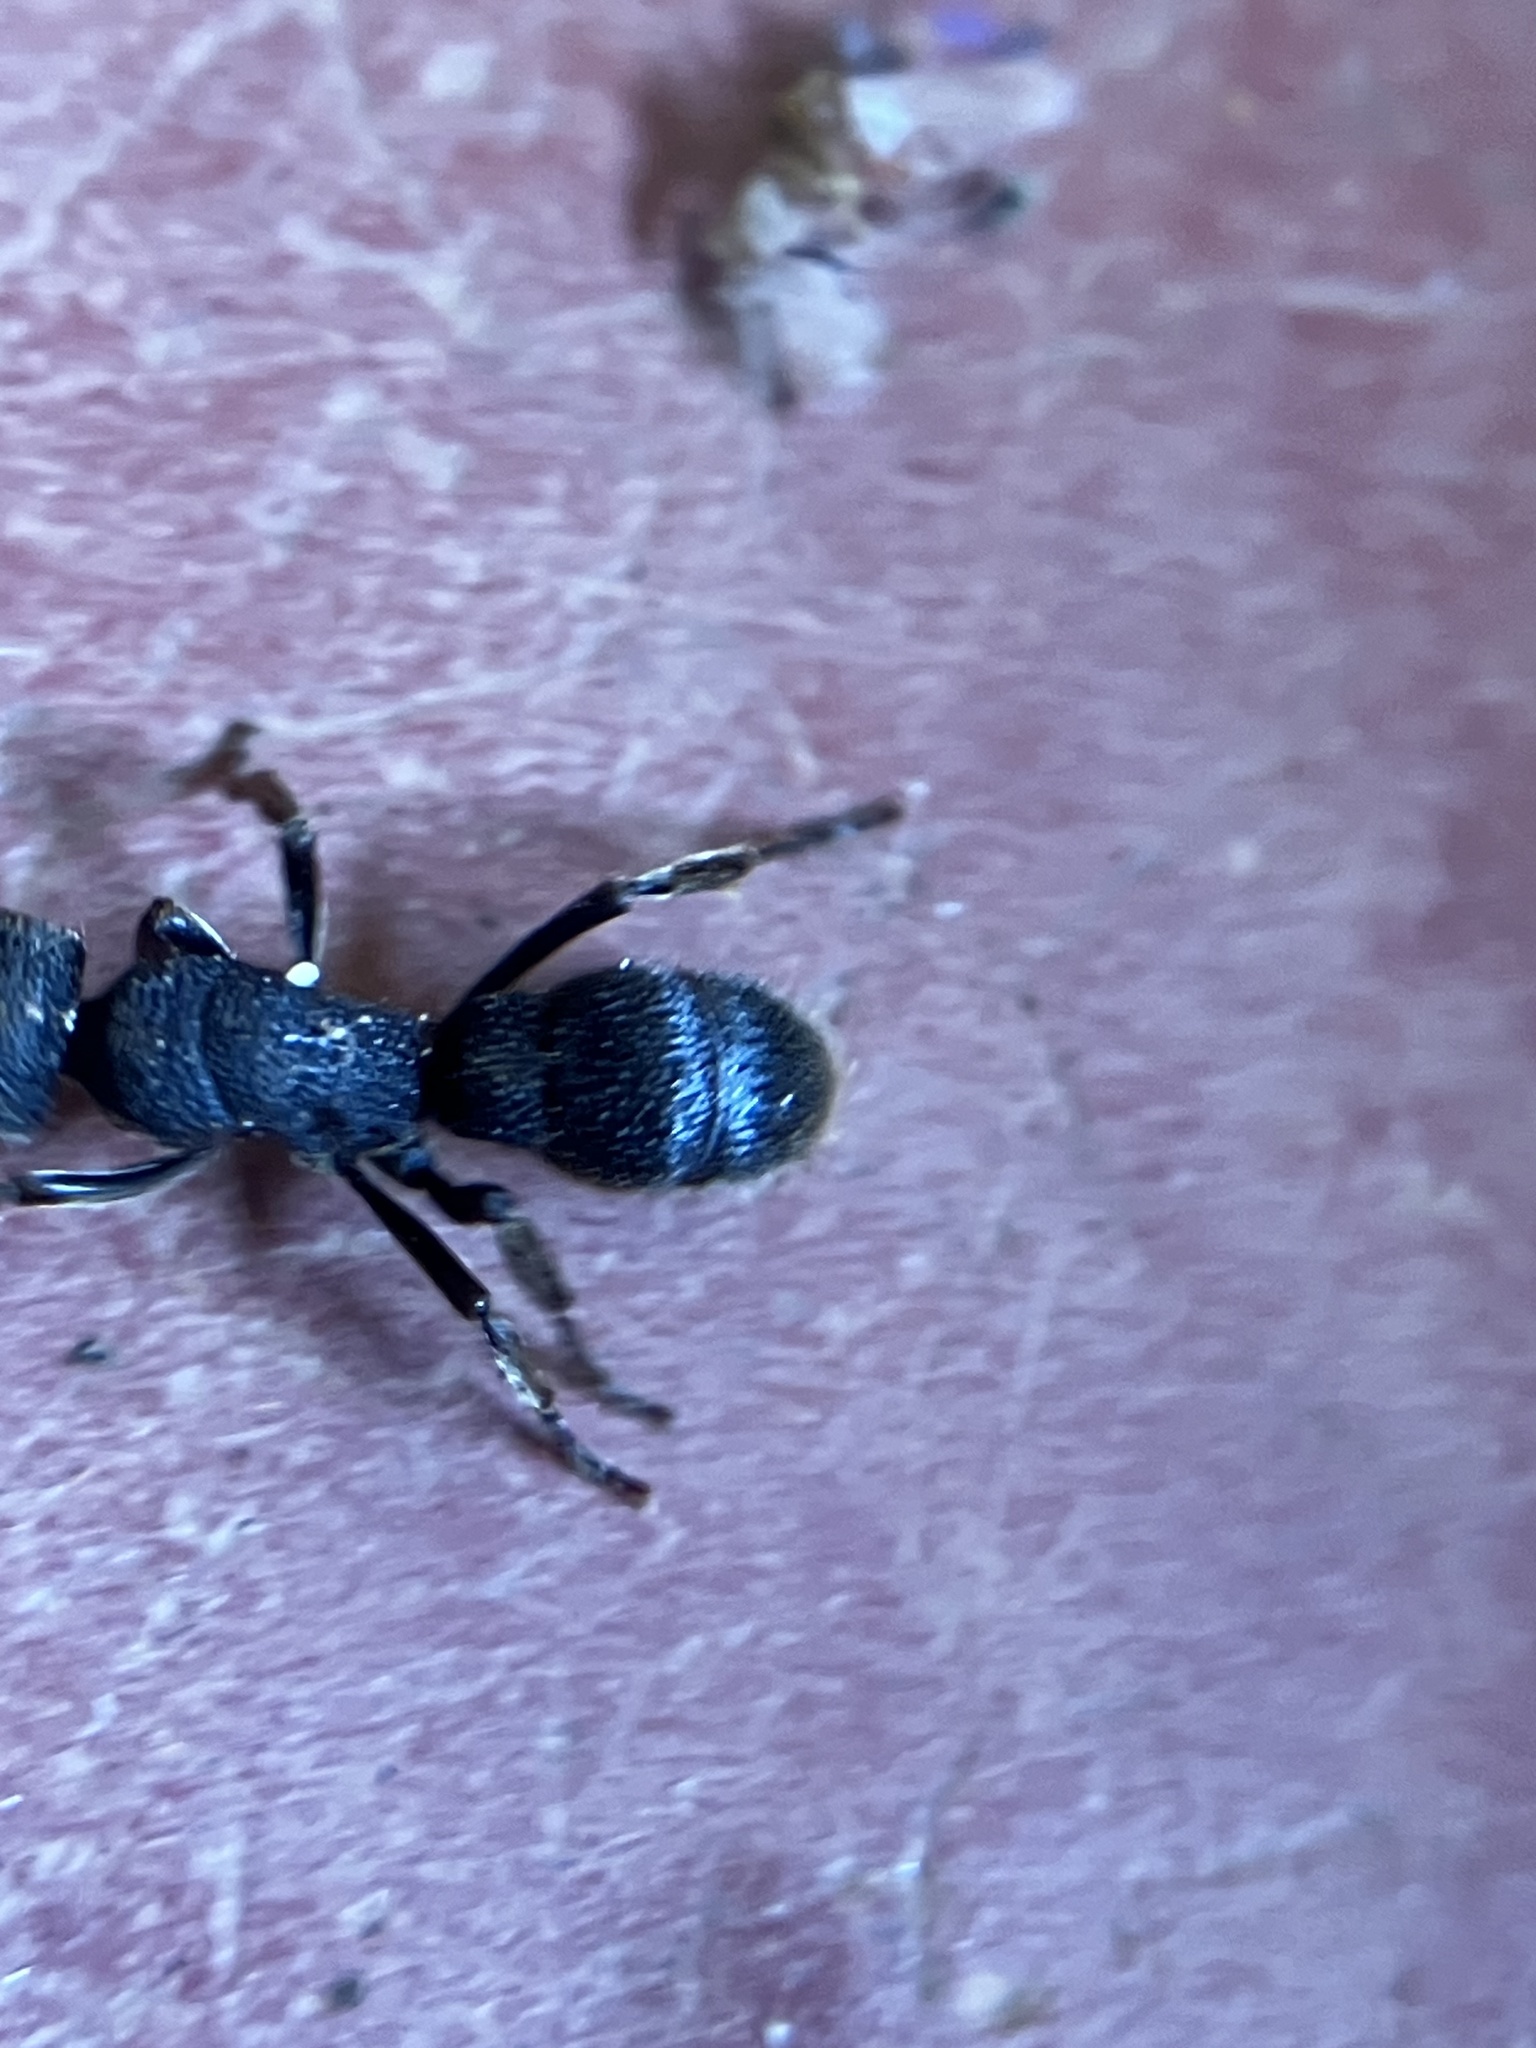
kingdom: Animalia
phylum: Arthropoda
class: Insecta
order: Hymenoptera
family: Formicidae
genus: Pseudoneoponera
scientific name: Pseudoneoponera rufipes
